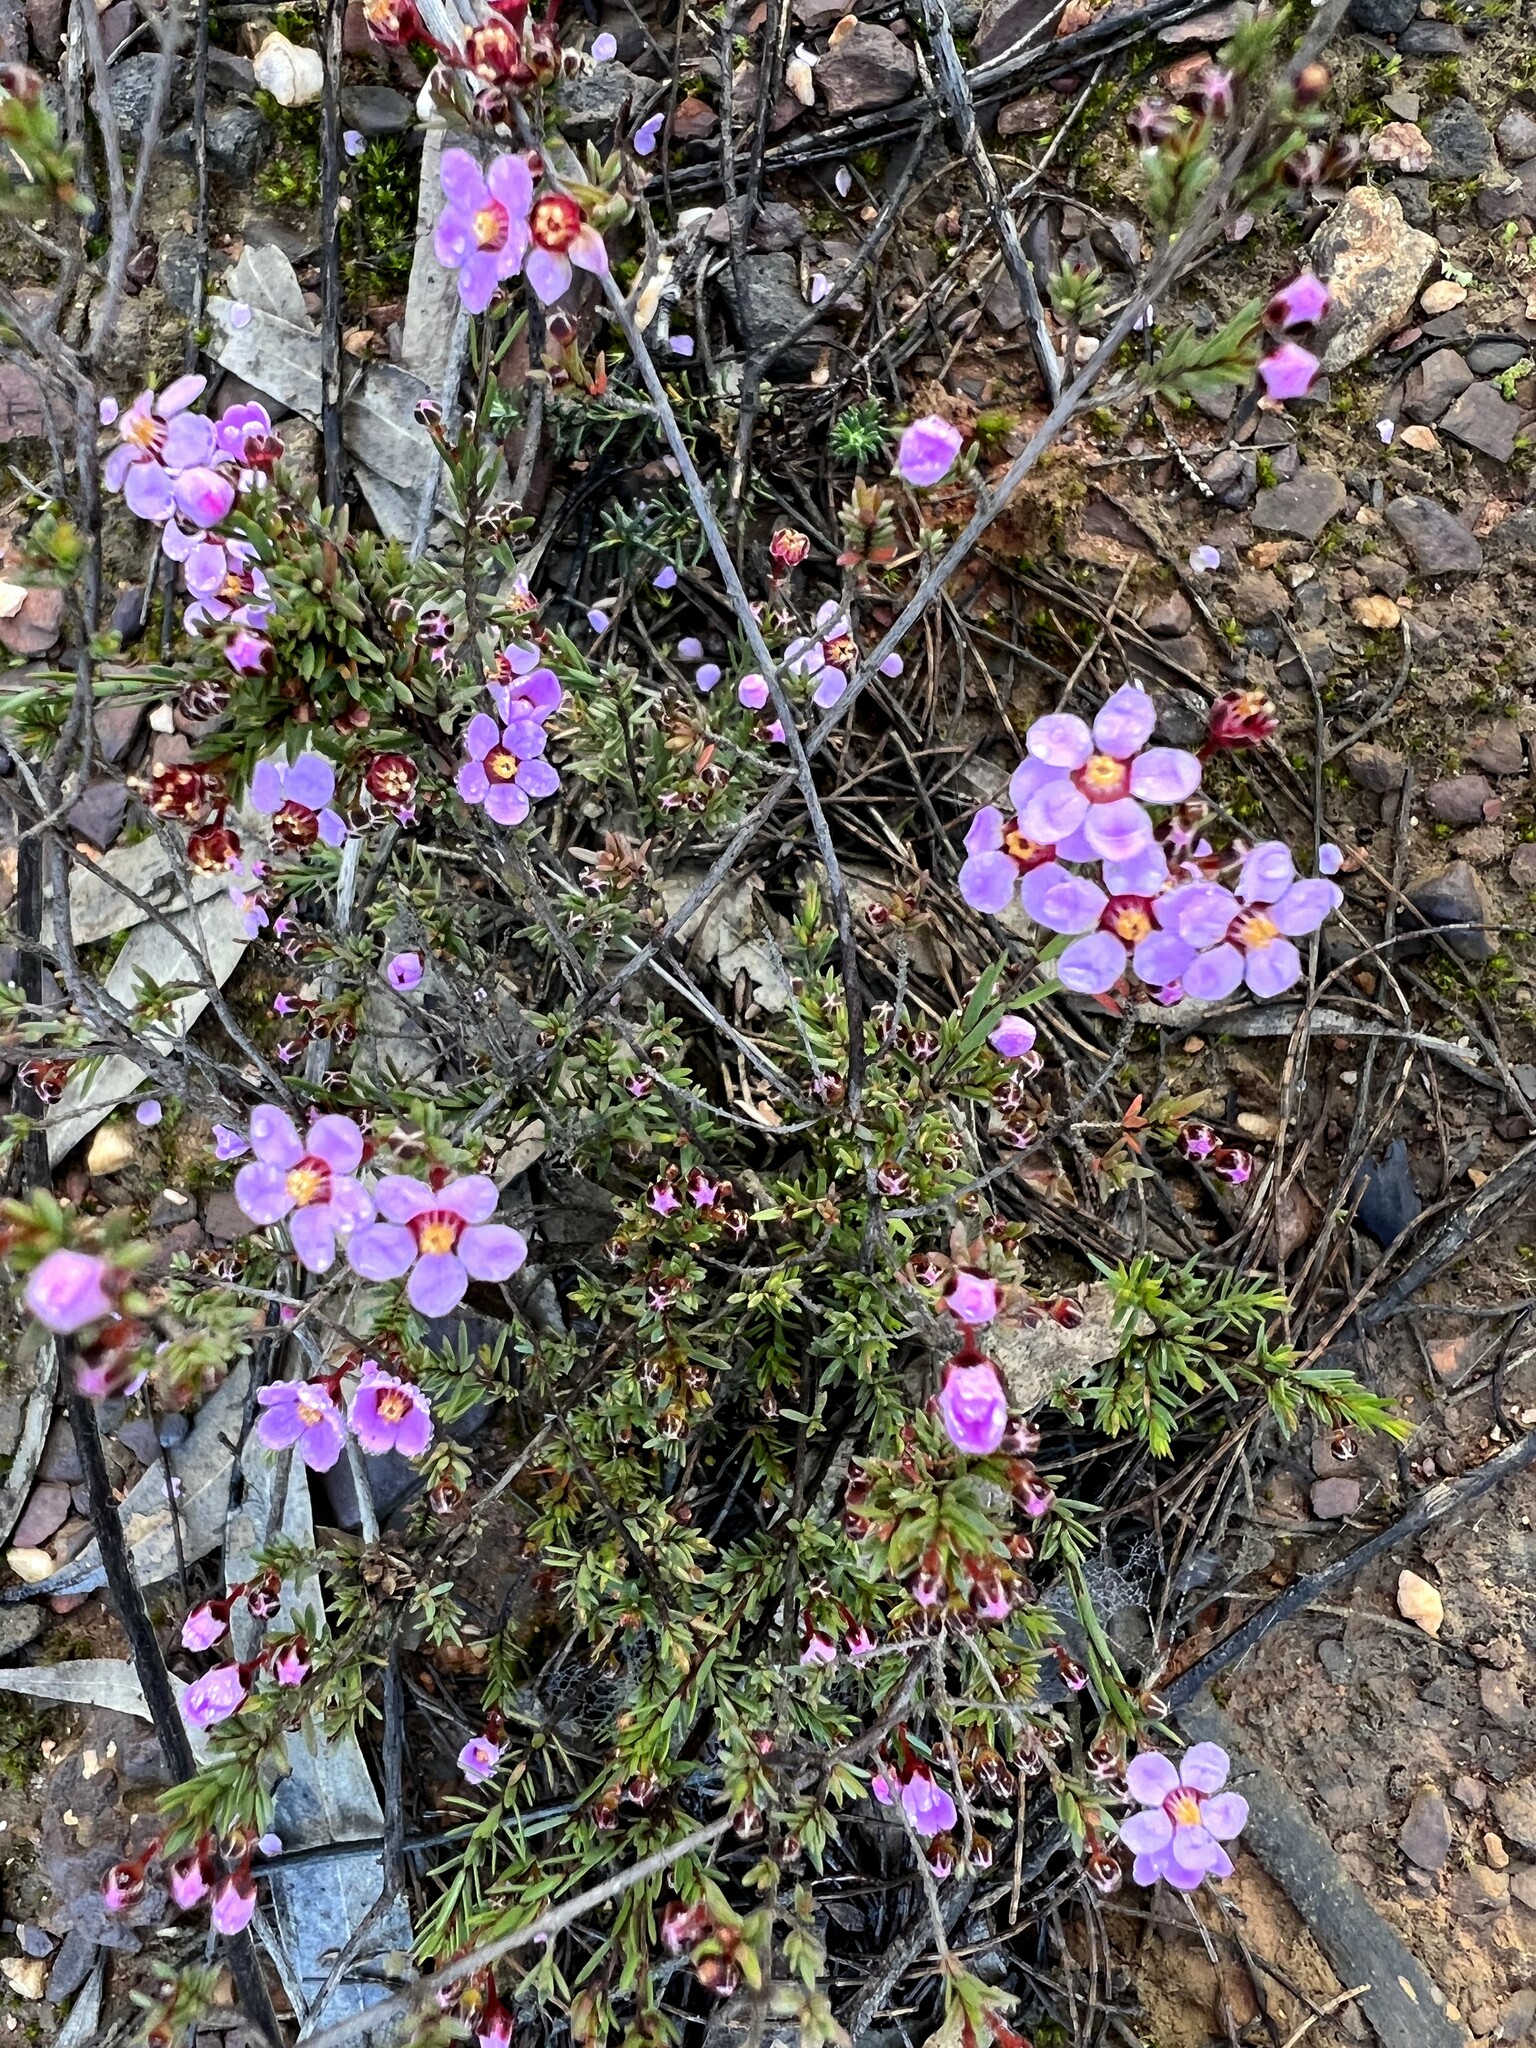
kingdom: Plantae
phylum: Tracheophyta
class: Magnoliopsida
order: Myrtales
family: Myrtaceae
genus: Euryomyrtus
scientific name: Euryomyrtus ramosissima
